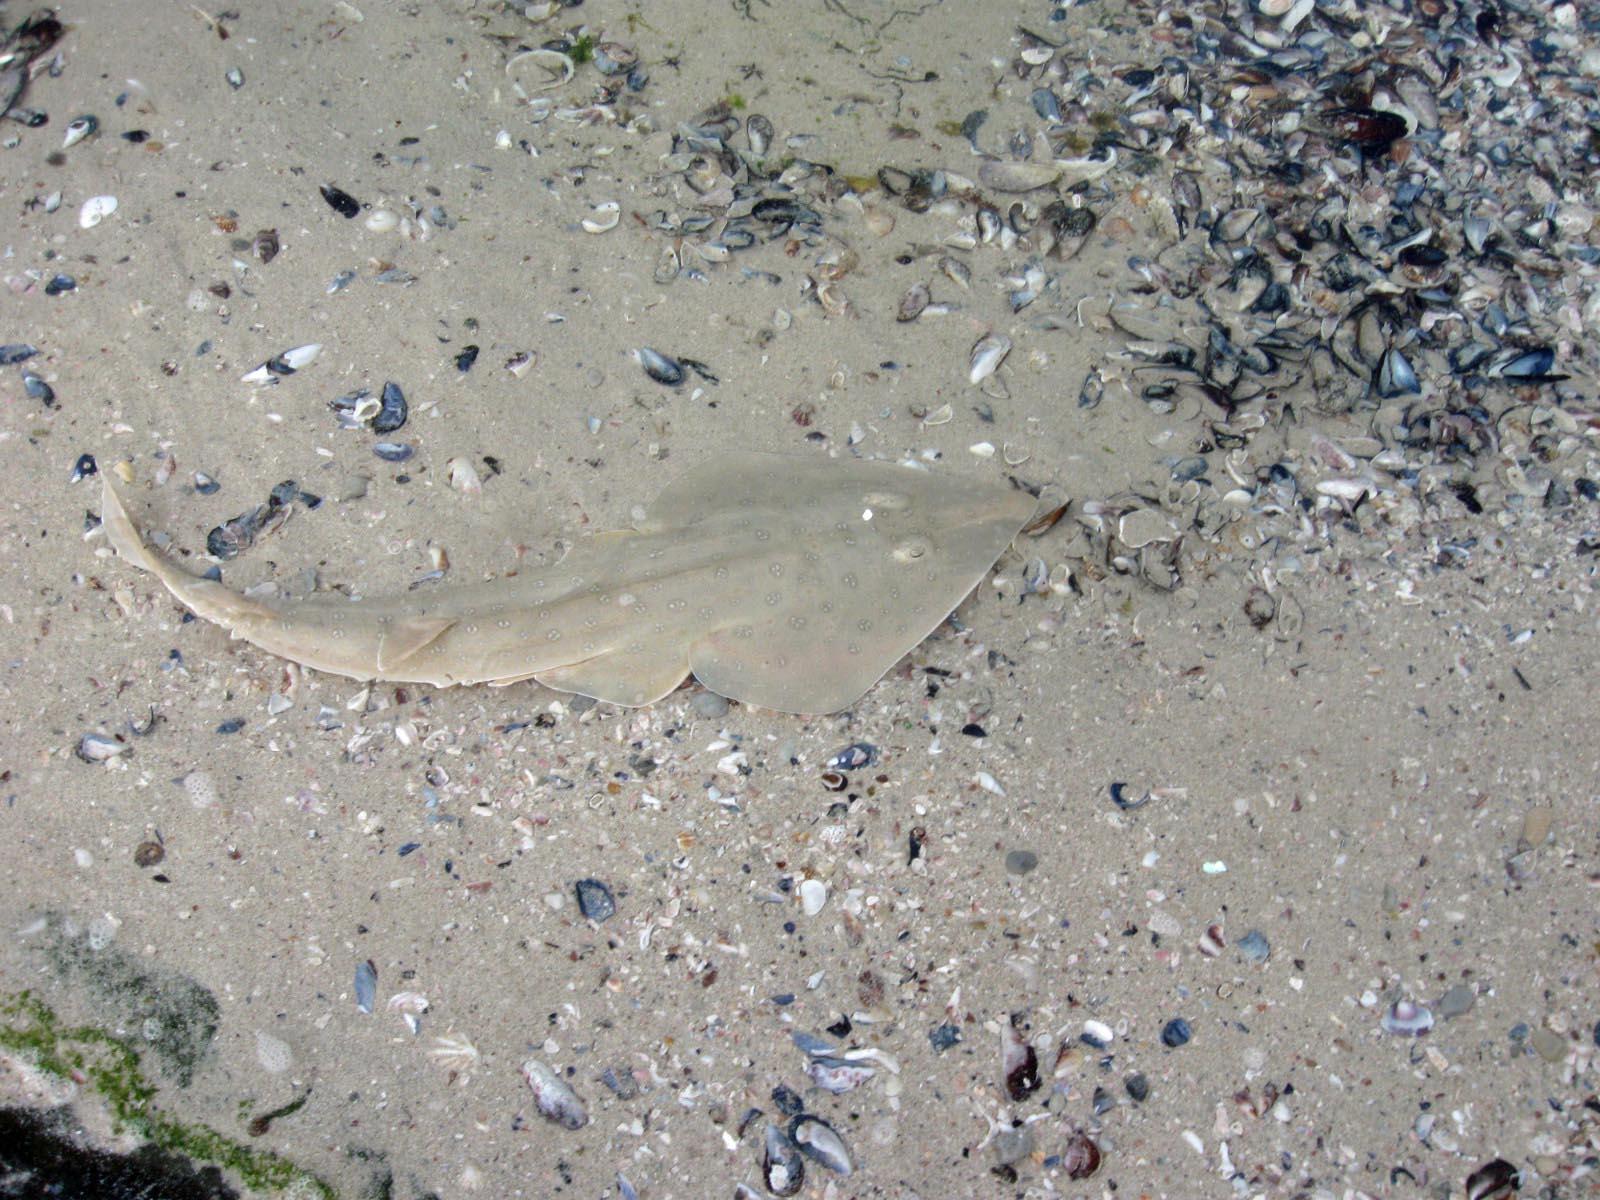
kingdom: Animalia
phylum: Chordata
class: Elasmobranchii
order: Rhinopristiformes
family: Rhinobatidae
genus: Acroteriobatus
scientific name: Acroteriobatus annulatus
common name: Lesser guitarfish
